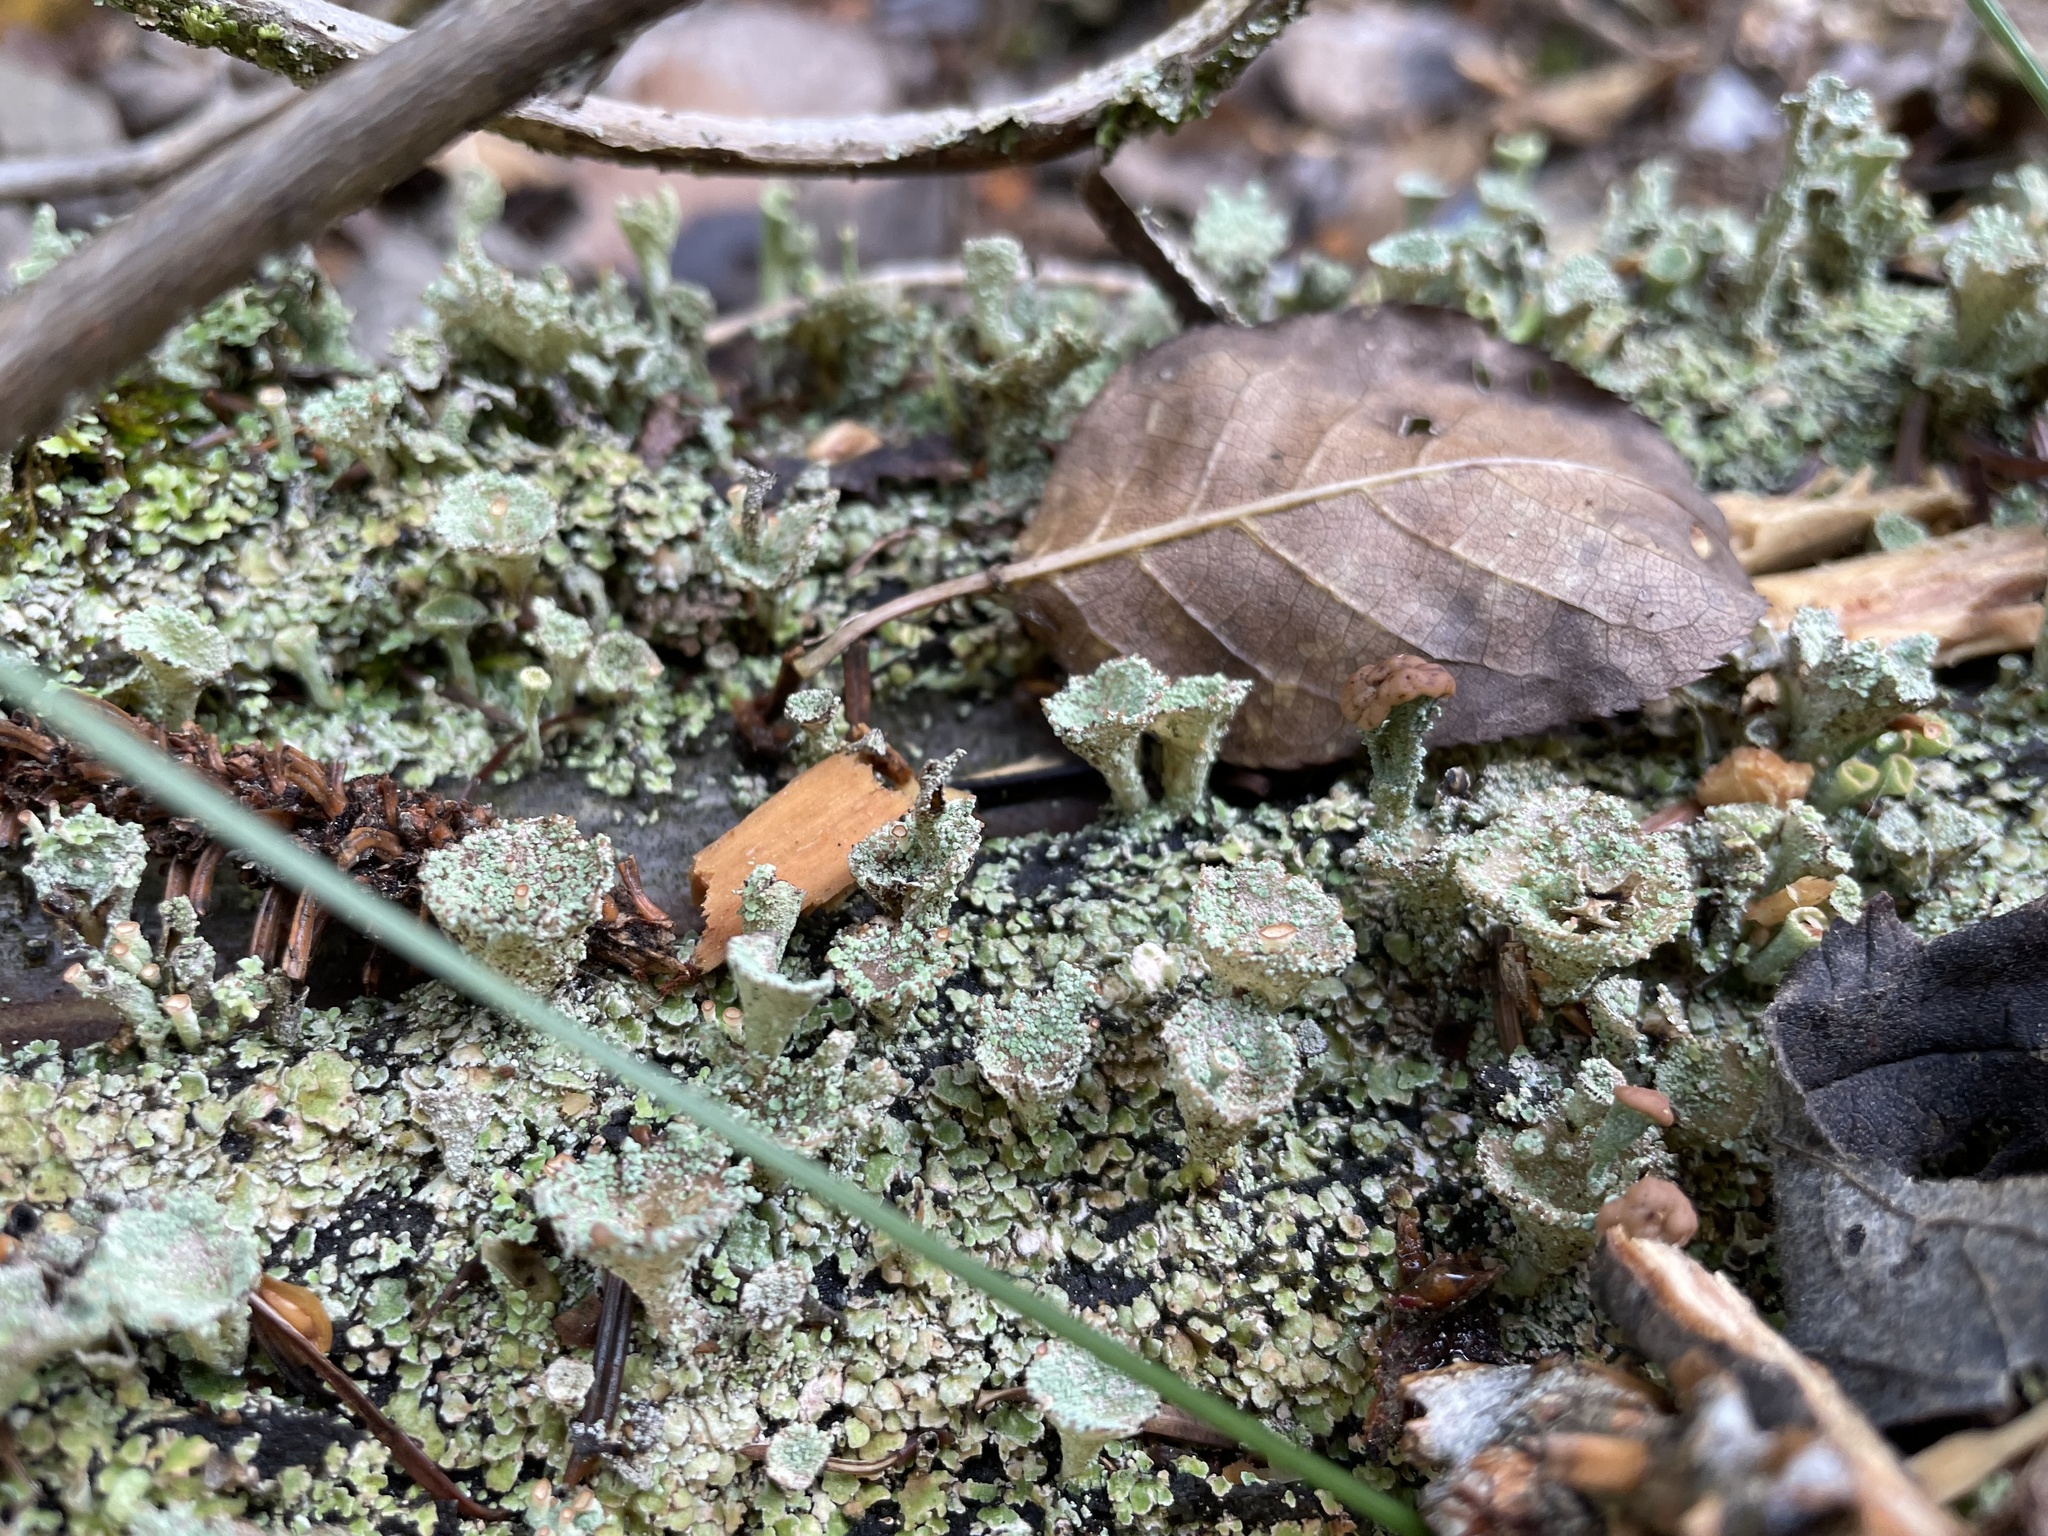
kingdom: Fungi
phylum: Ascomycota
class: Lecanoromycetes
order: Lecanorales
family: Cladoniaceae
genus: Cladonia
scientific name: Cladonia pyxidata
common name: Pebbled pixie cup
